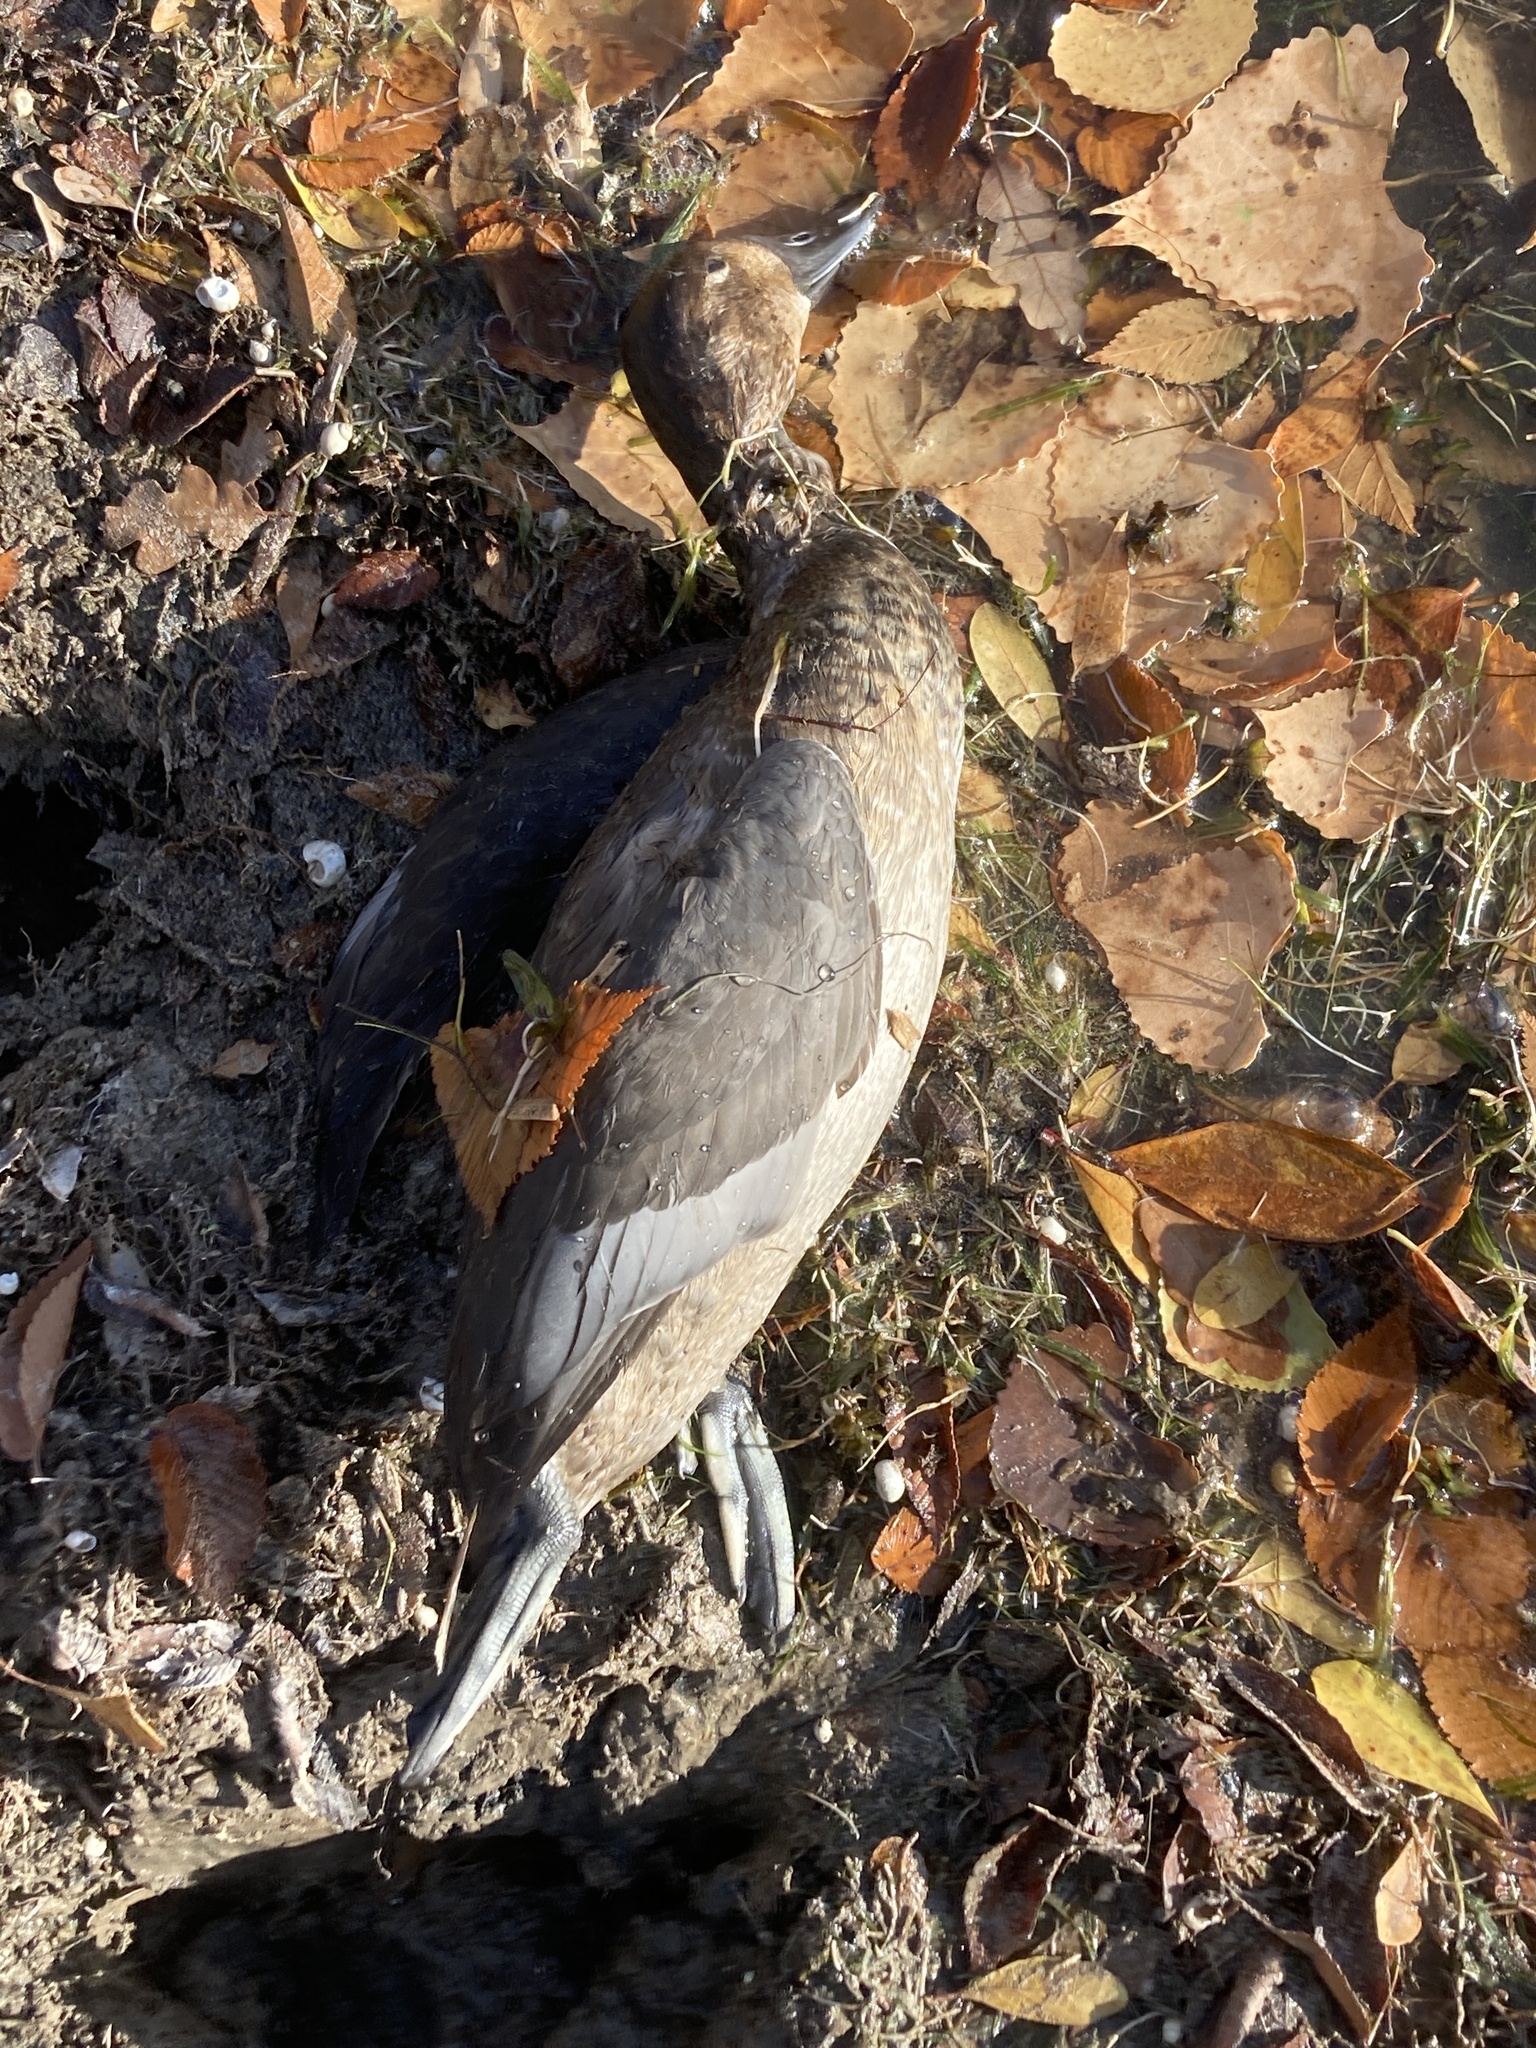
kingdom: Animalia
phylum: Chordata
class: Aves
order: Anseriformes
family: Anatidae
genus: Aythya
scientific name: Aythya valisineria
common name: Canvasback
